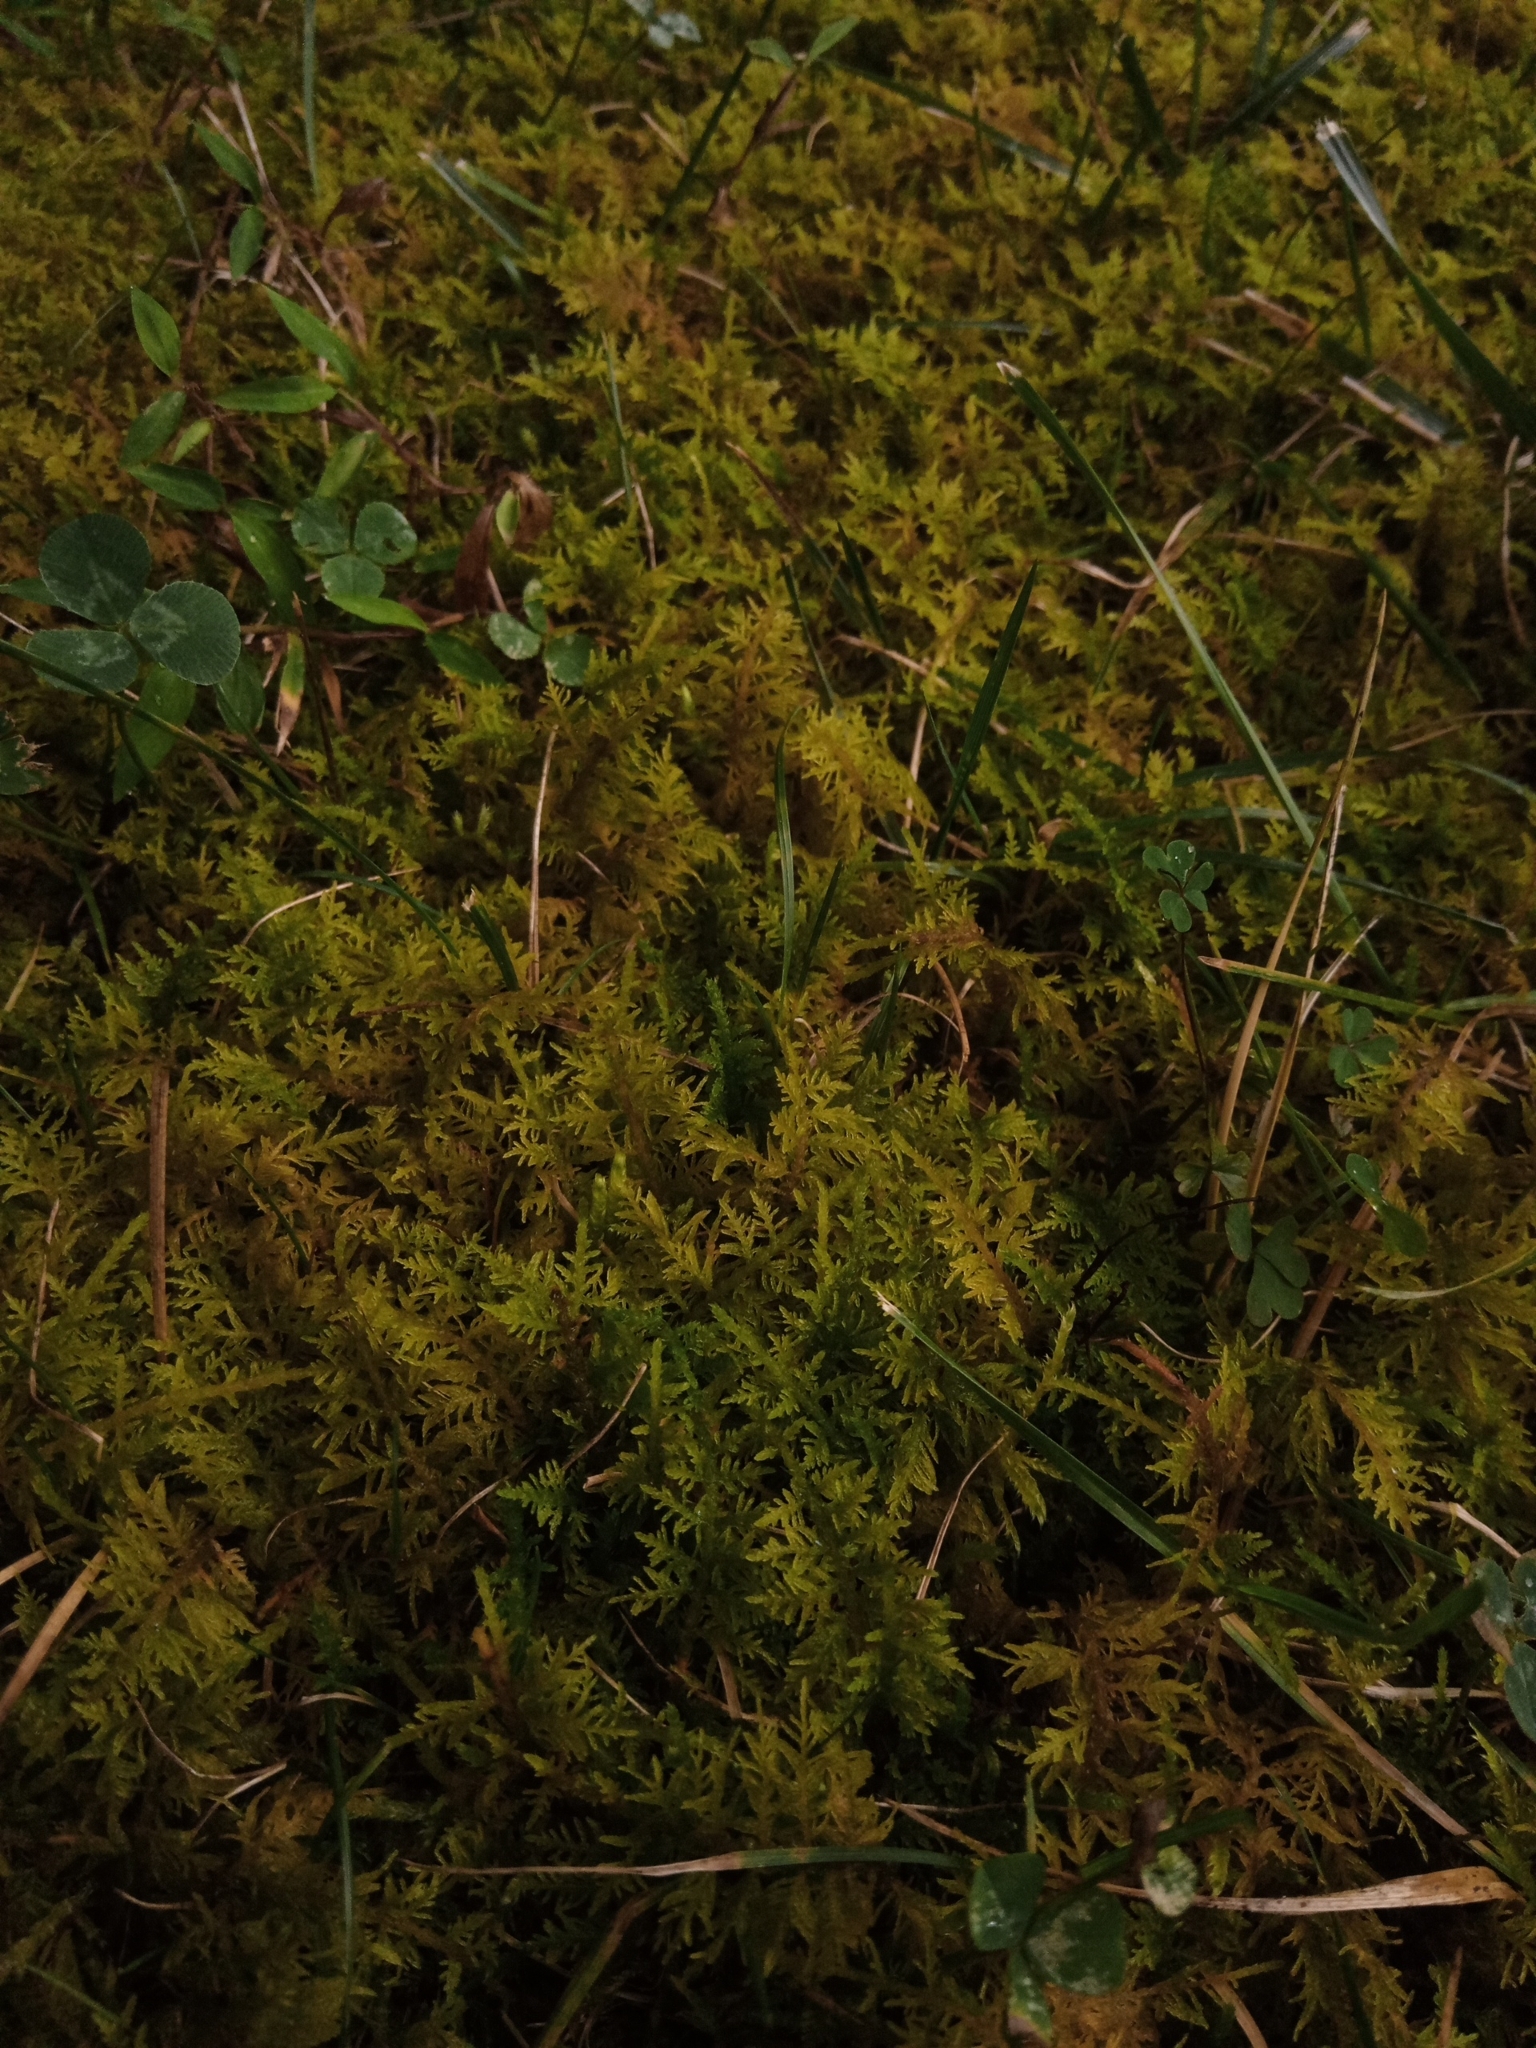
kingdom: Plantae
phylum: Bryophyta
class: Bryopsida
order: Hypnales
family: Thuidiaceae
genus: Thuidium
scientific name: Thuidium delicatulum
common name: Delicate fern moss
